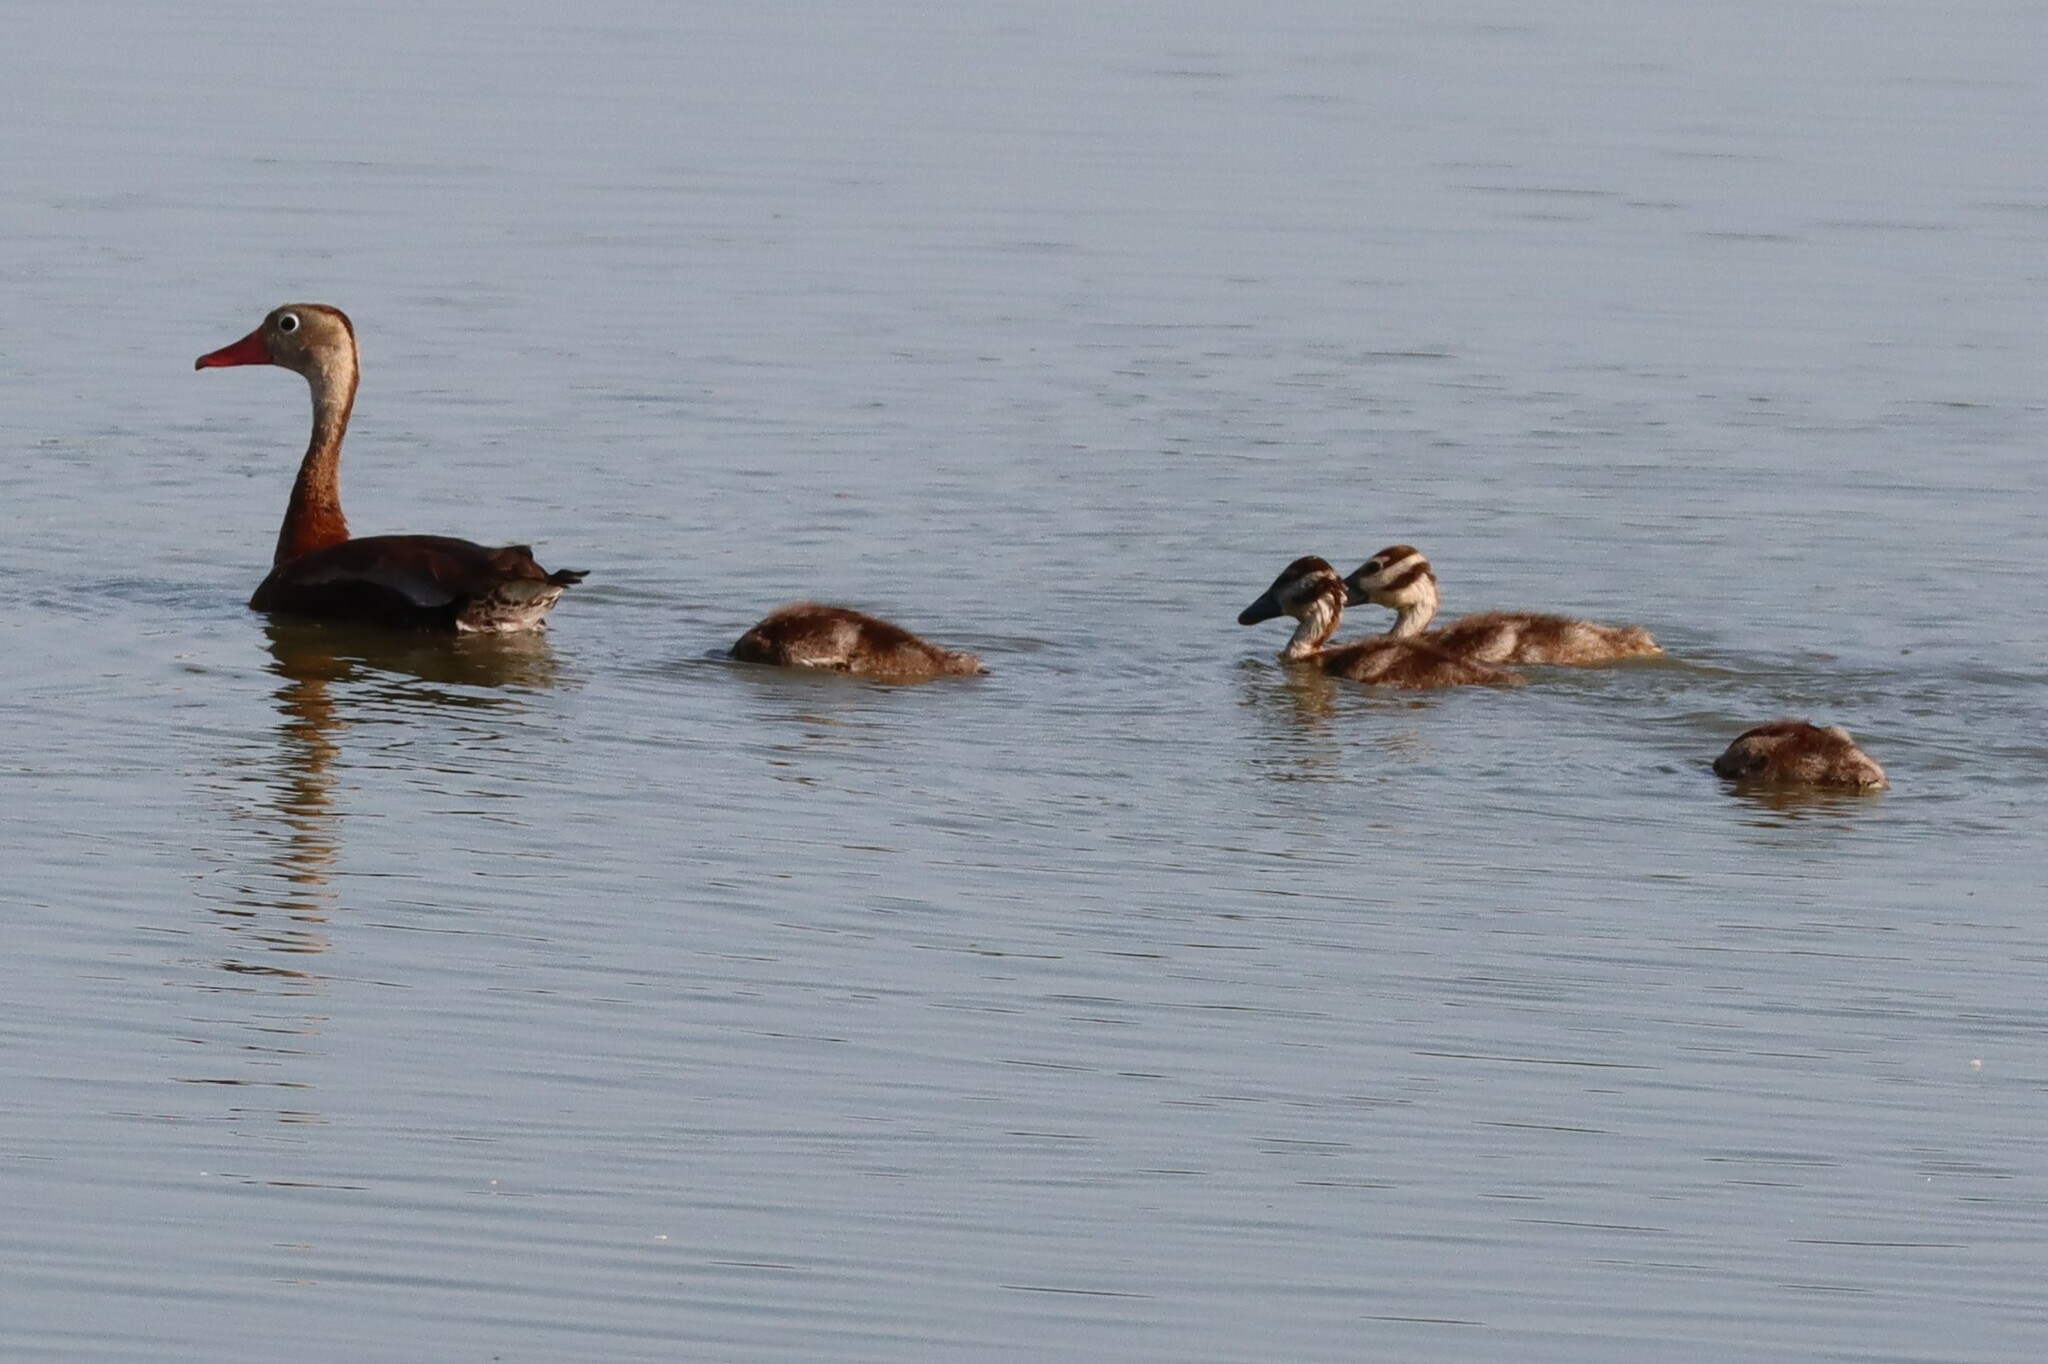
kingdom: Animalia
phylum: Chordata
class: Aves
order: Anseriformes
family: Anatidae
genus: Dendrocygna
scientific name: Dendrocygna autumnalis
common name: Black-bellied whistling duck
